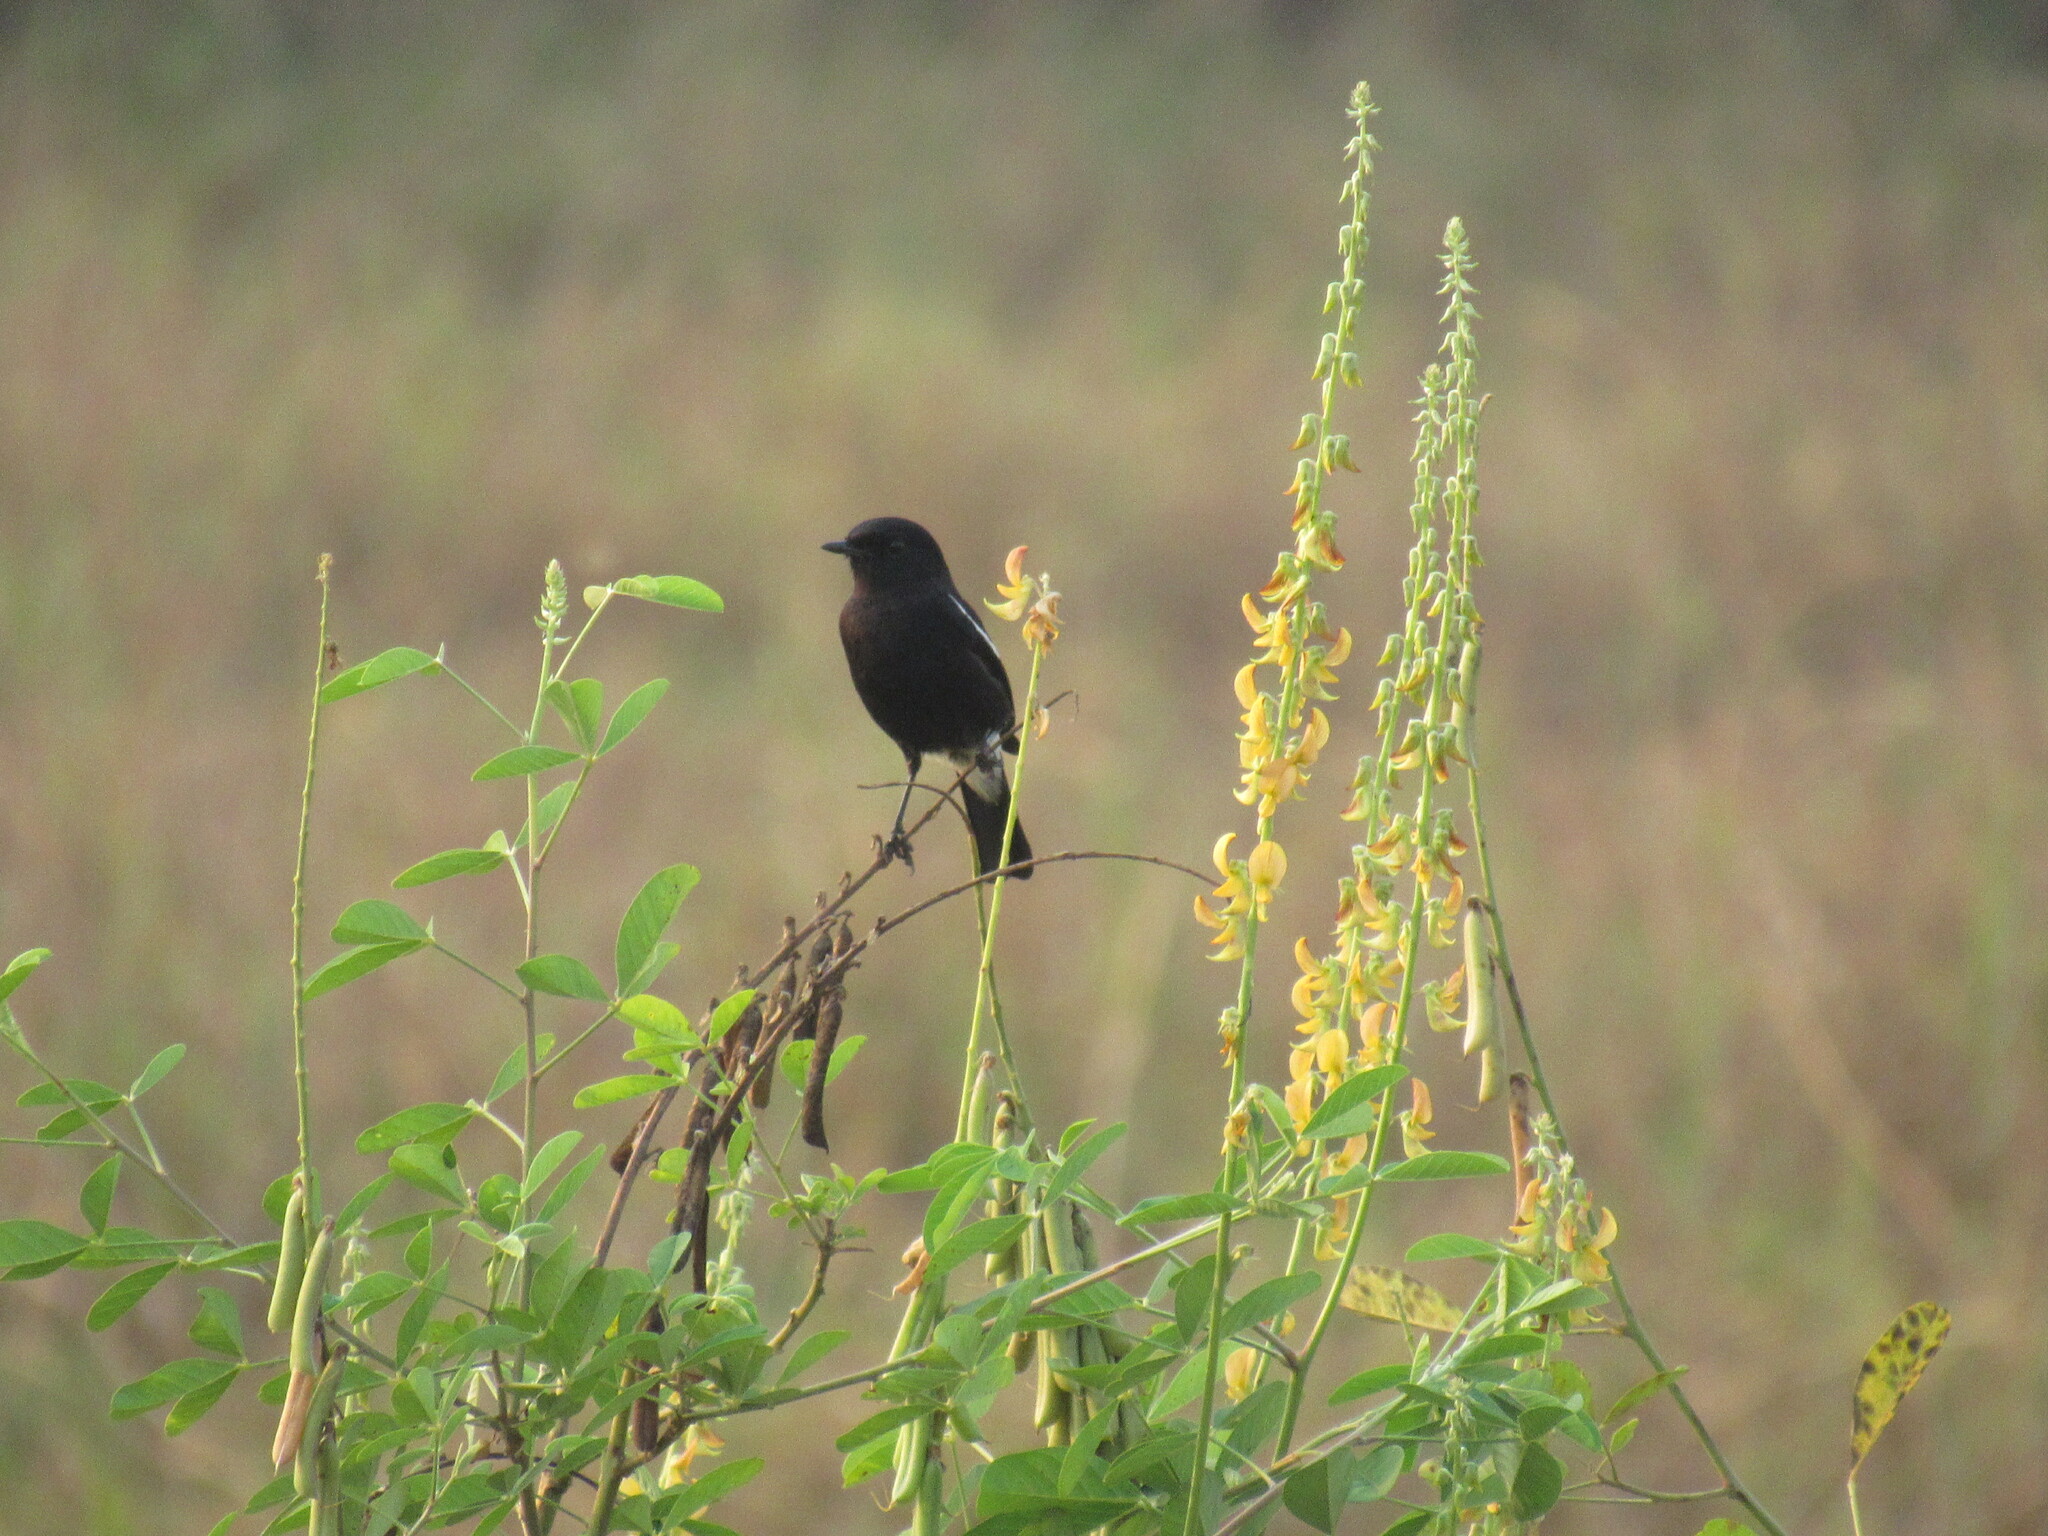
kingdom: Animalia
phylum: Chordata
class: Aves
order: Passeriformes
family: Muscicapidae
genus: Saxicola
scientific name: Saxicola caprata
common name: Pied bush chat
